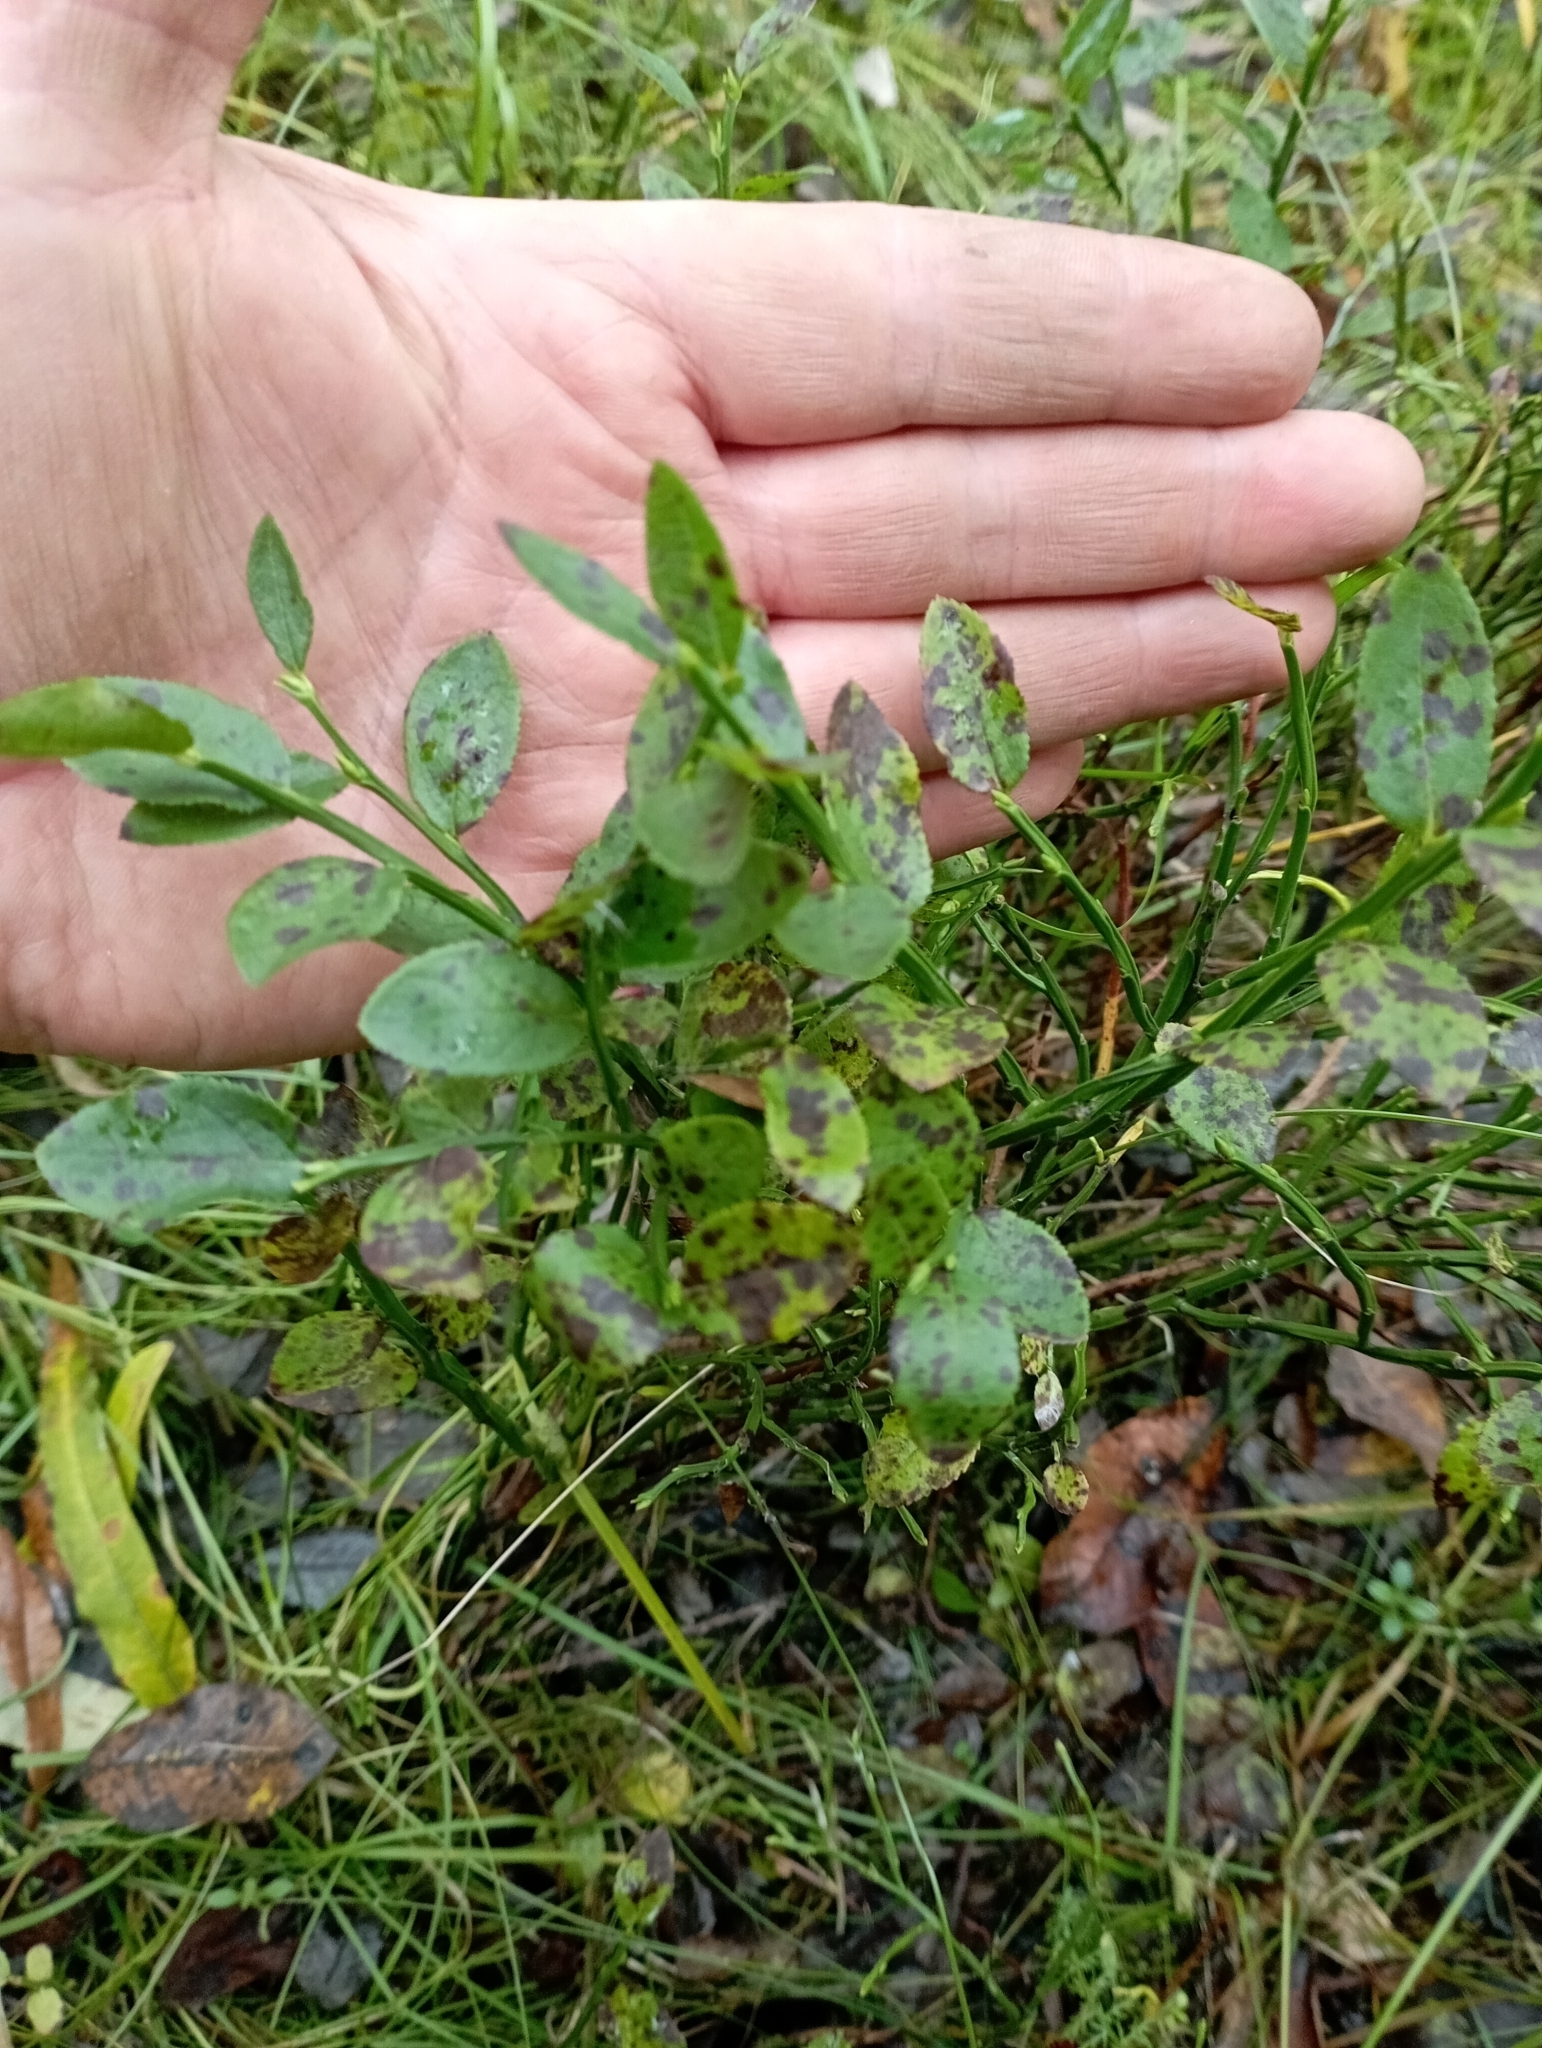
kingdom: Plantae
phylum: Tracheophyta
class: Magnoliopsida
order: Ericales
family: Ericaceae
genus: Vaccinium
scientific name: Vaccinium myrtillus
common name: Bilberry
